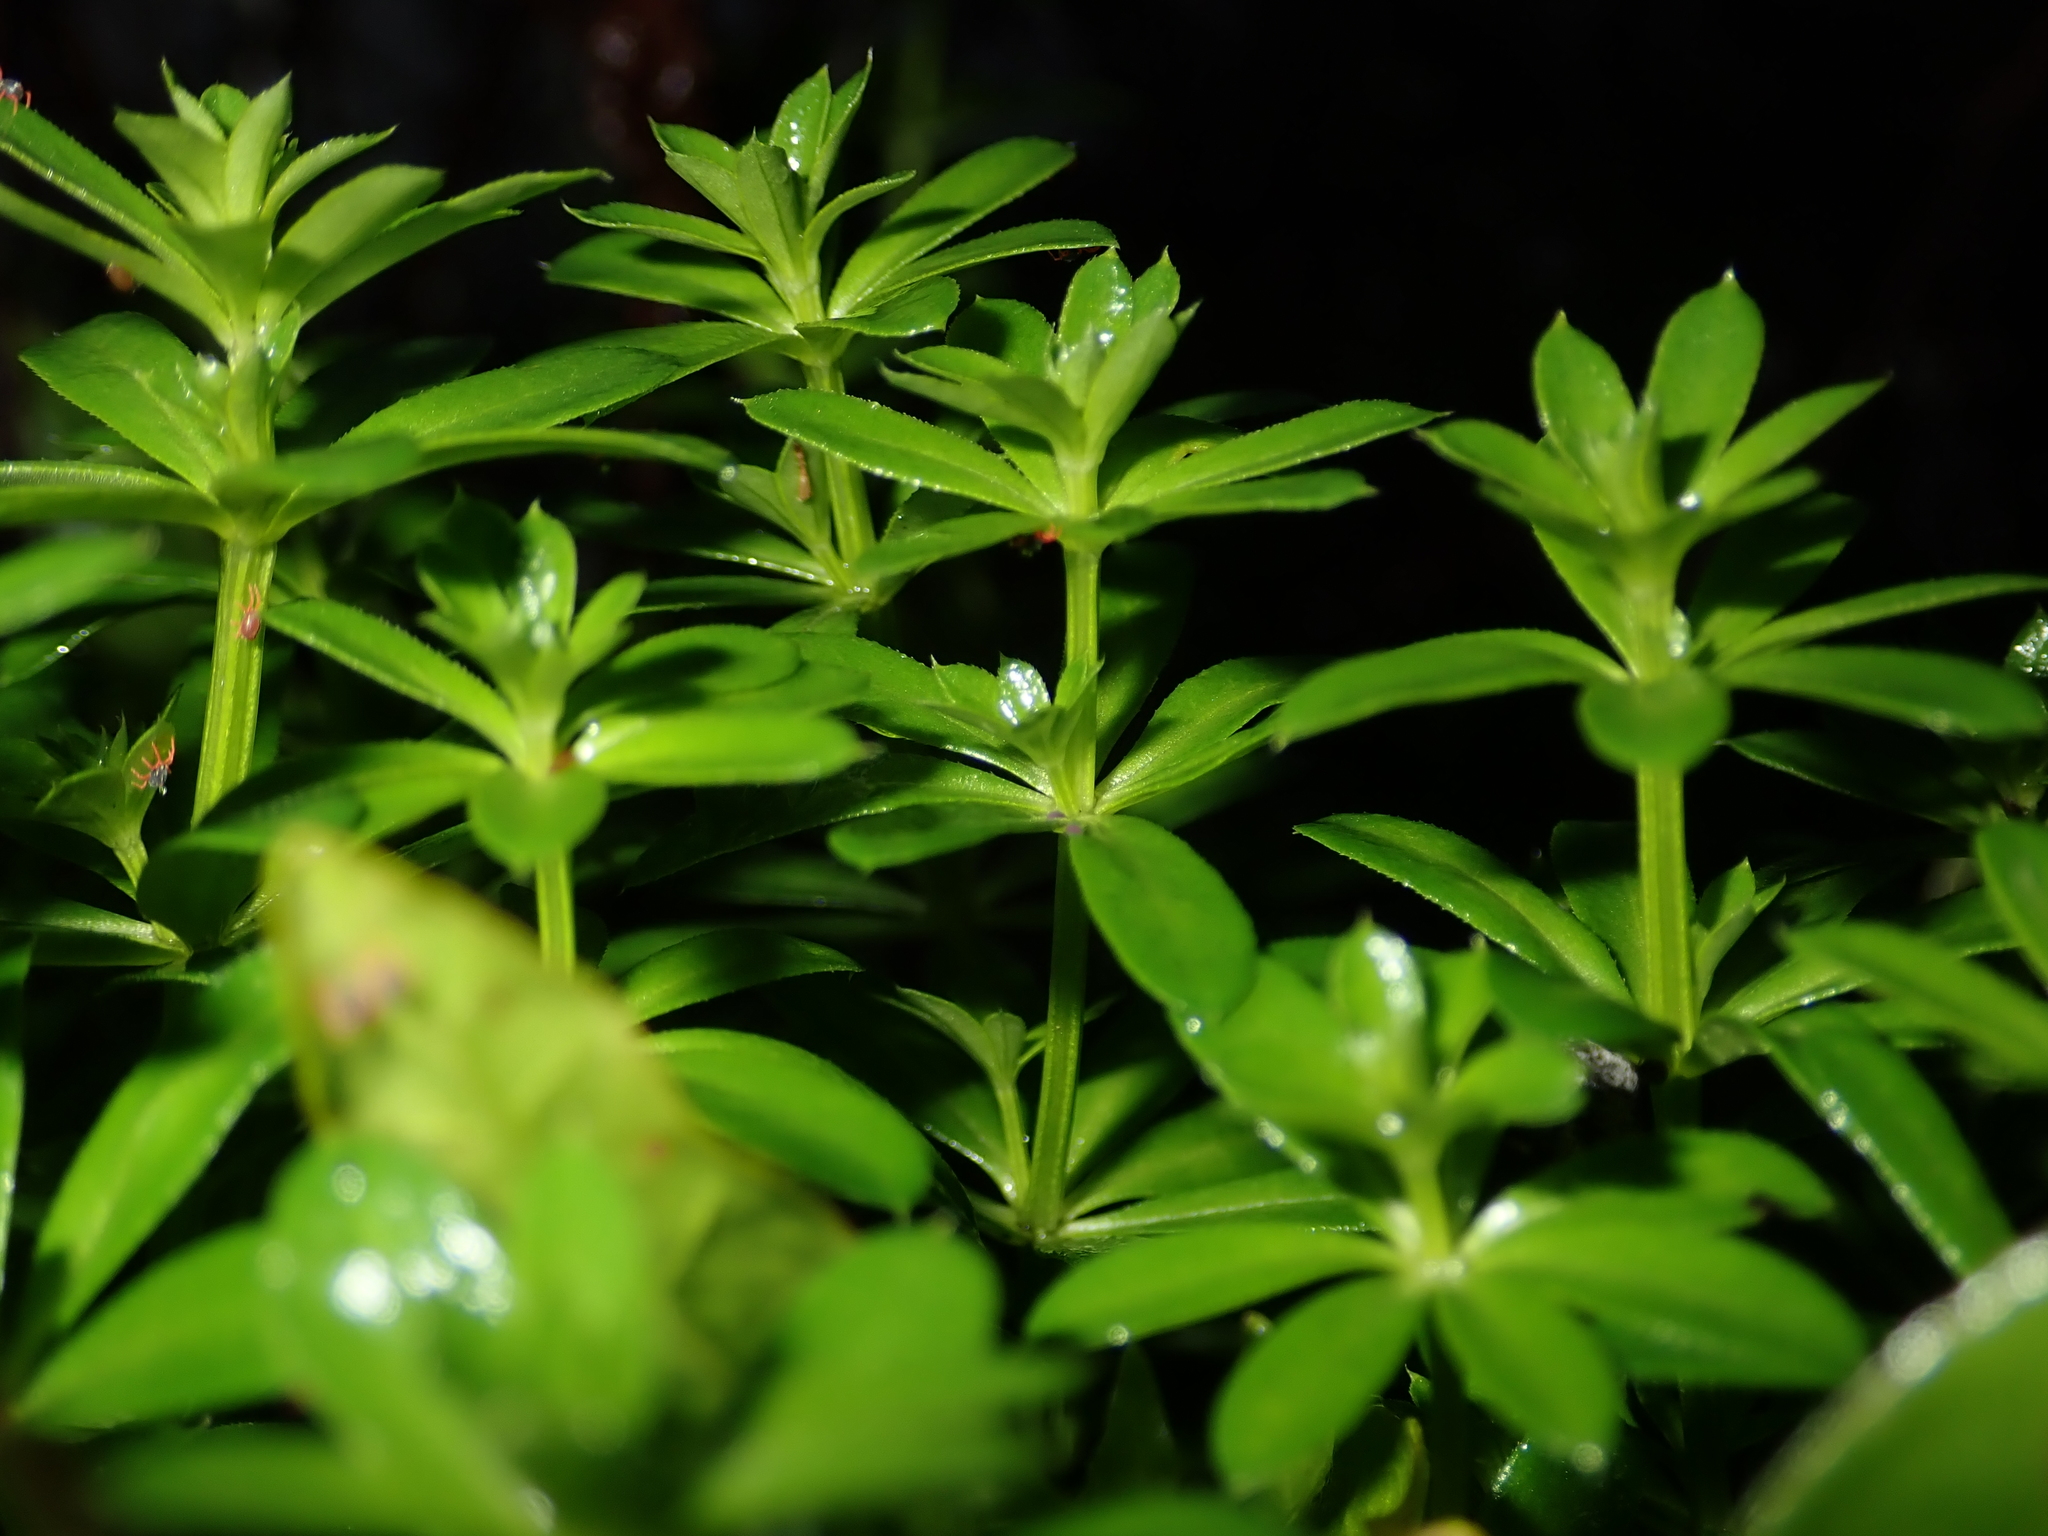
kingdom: Plantae
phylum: Tracheophyta
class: Magnoliopsida
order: Gentianales
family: Rubiaceae
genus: Galium
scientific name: Galium odoratum
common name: Sweet woodruff
